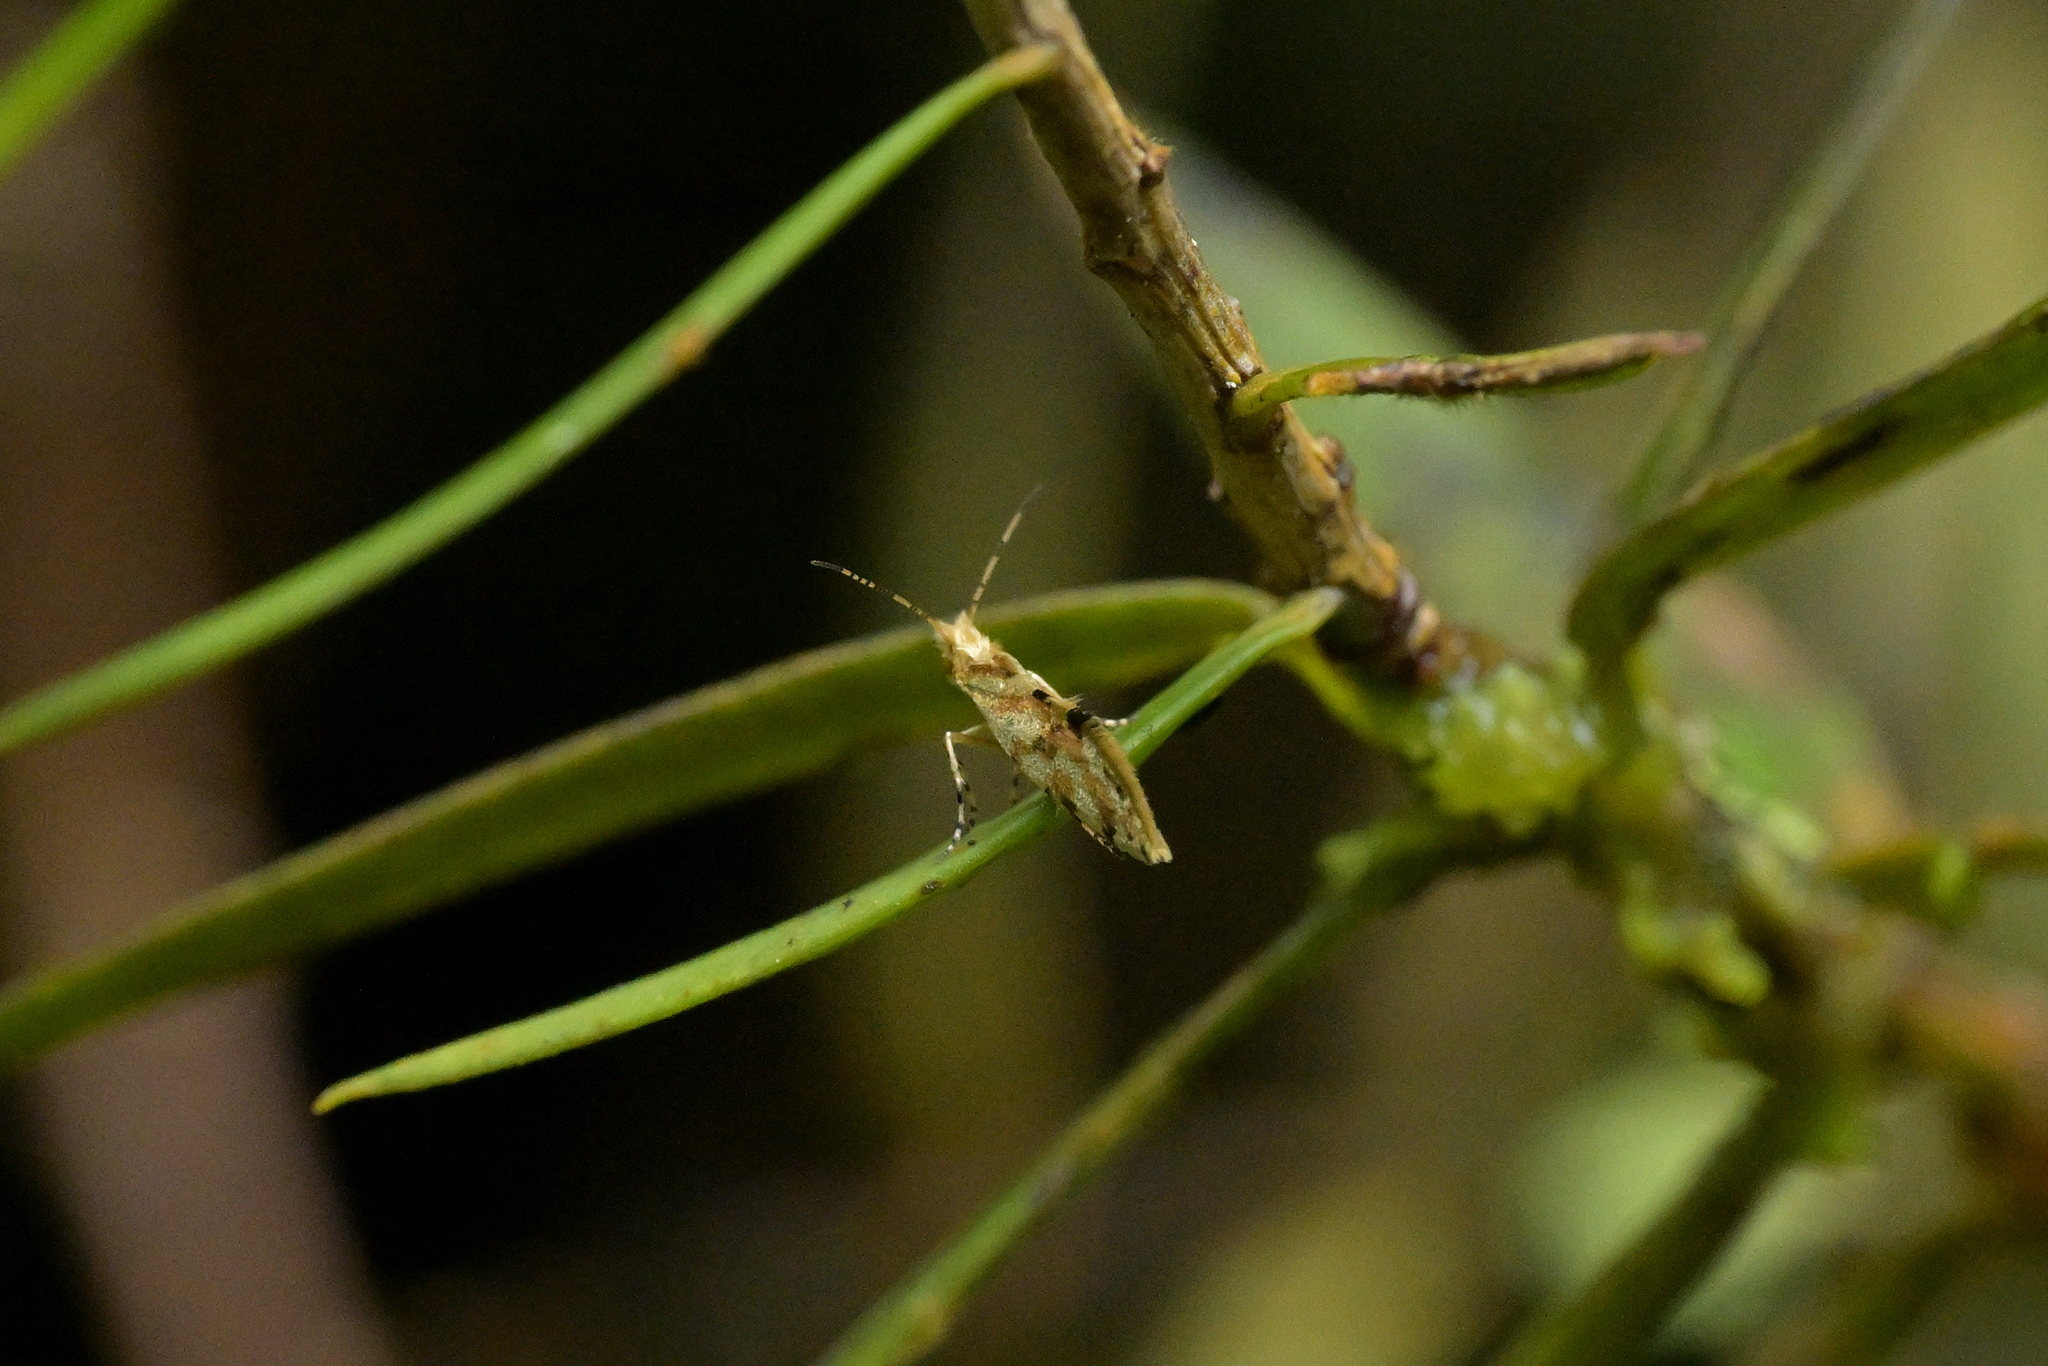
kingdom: Animalia
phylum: Arthropoda
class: Insecta
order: Lepidoptera
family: Micropterigidae
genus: Sabatinca
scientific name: Sabatinca chalcophanes
